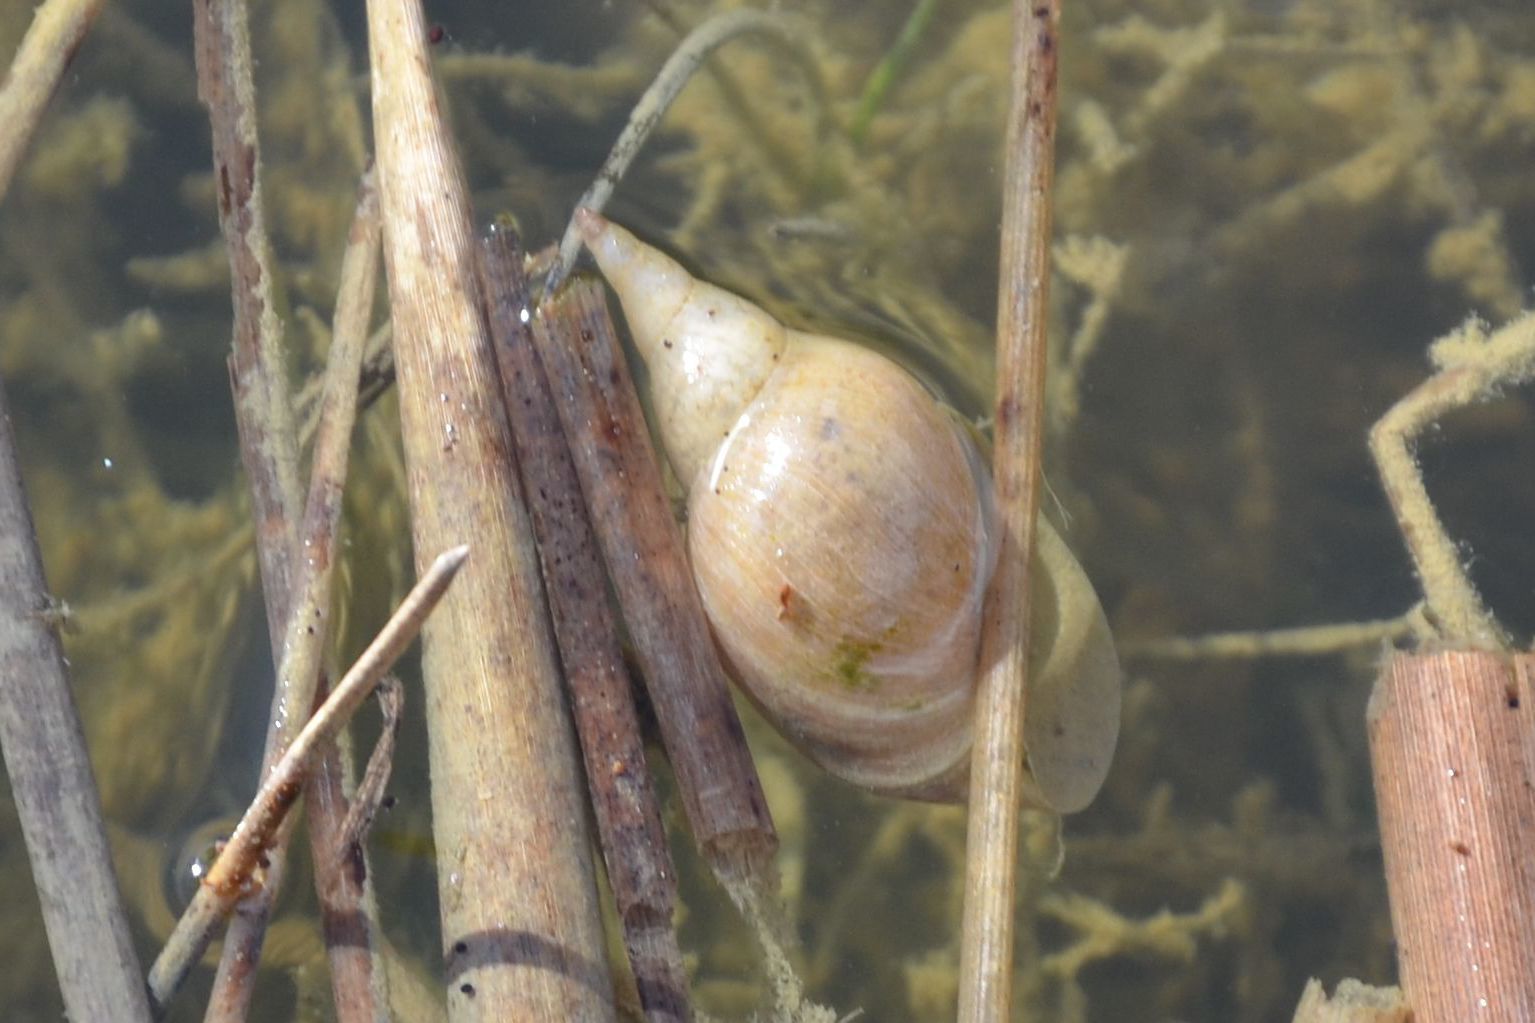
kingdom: Animalia
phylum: Mollusca
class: Gastropoda
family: Lymnaeidae
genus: Lymnaea
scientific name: Lymnaea stagnalis
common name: Great pond snail
